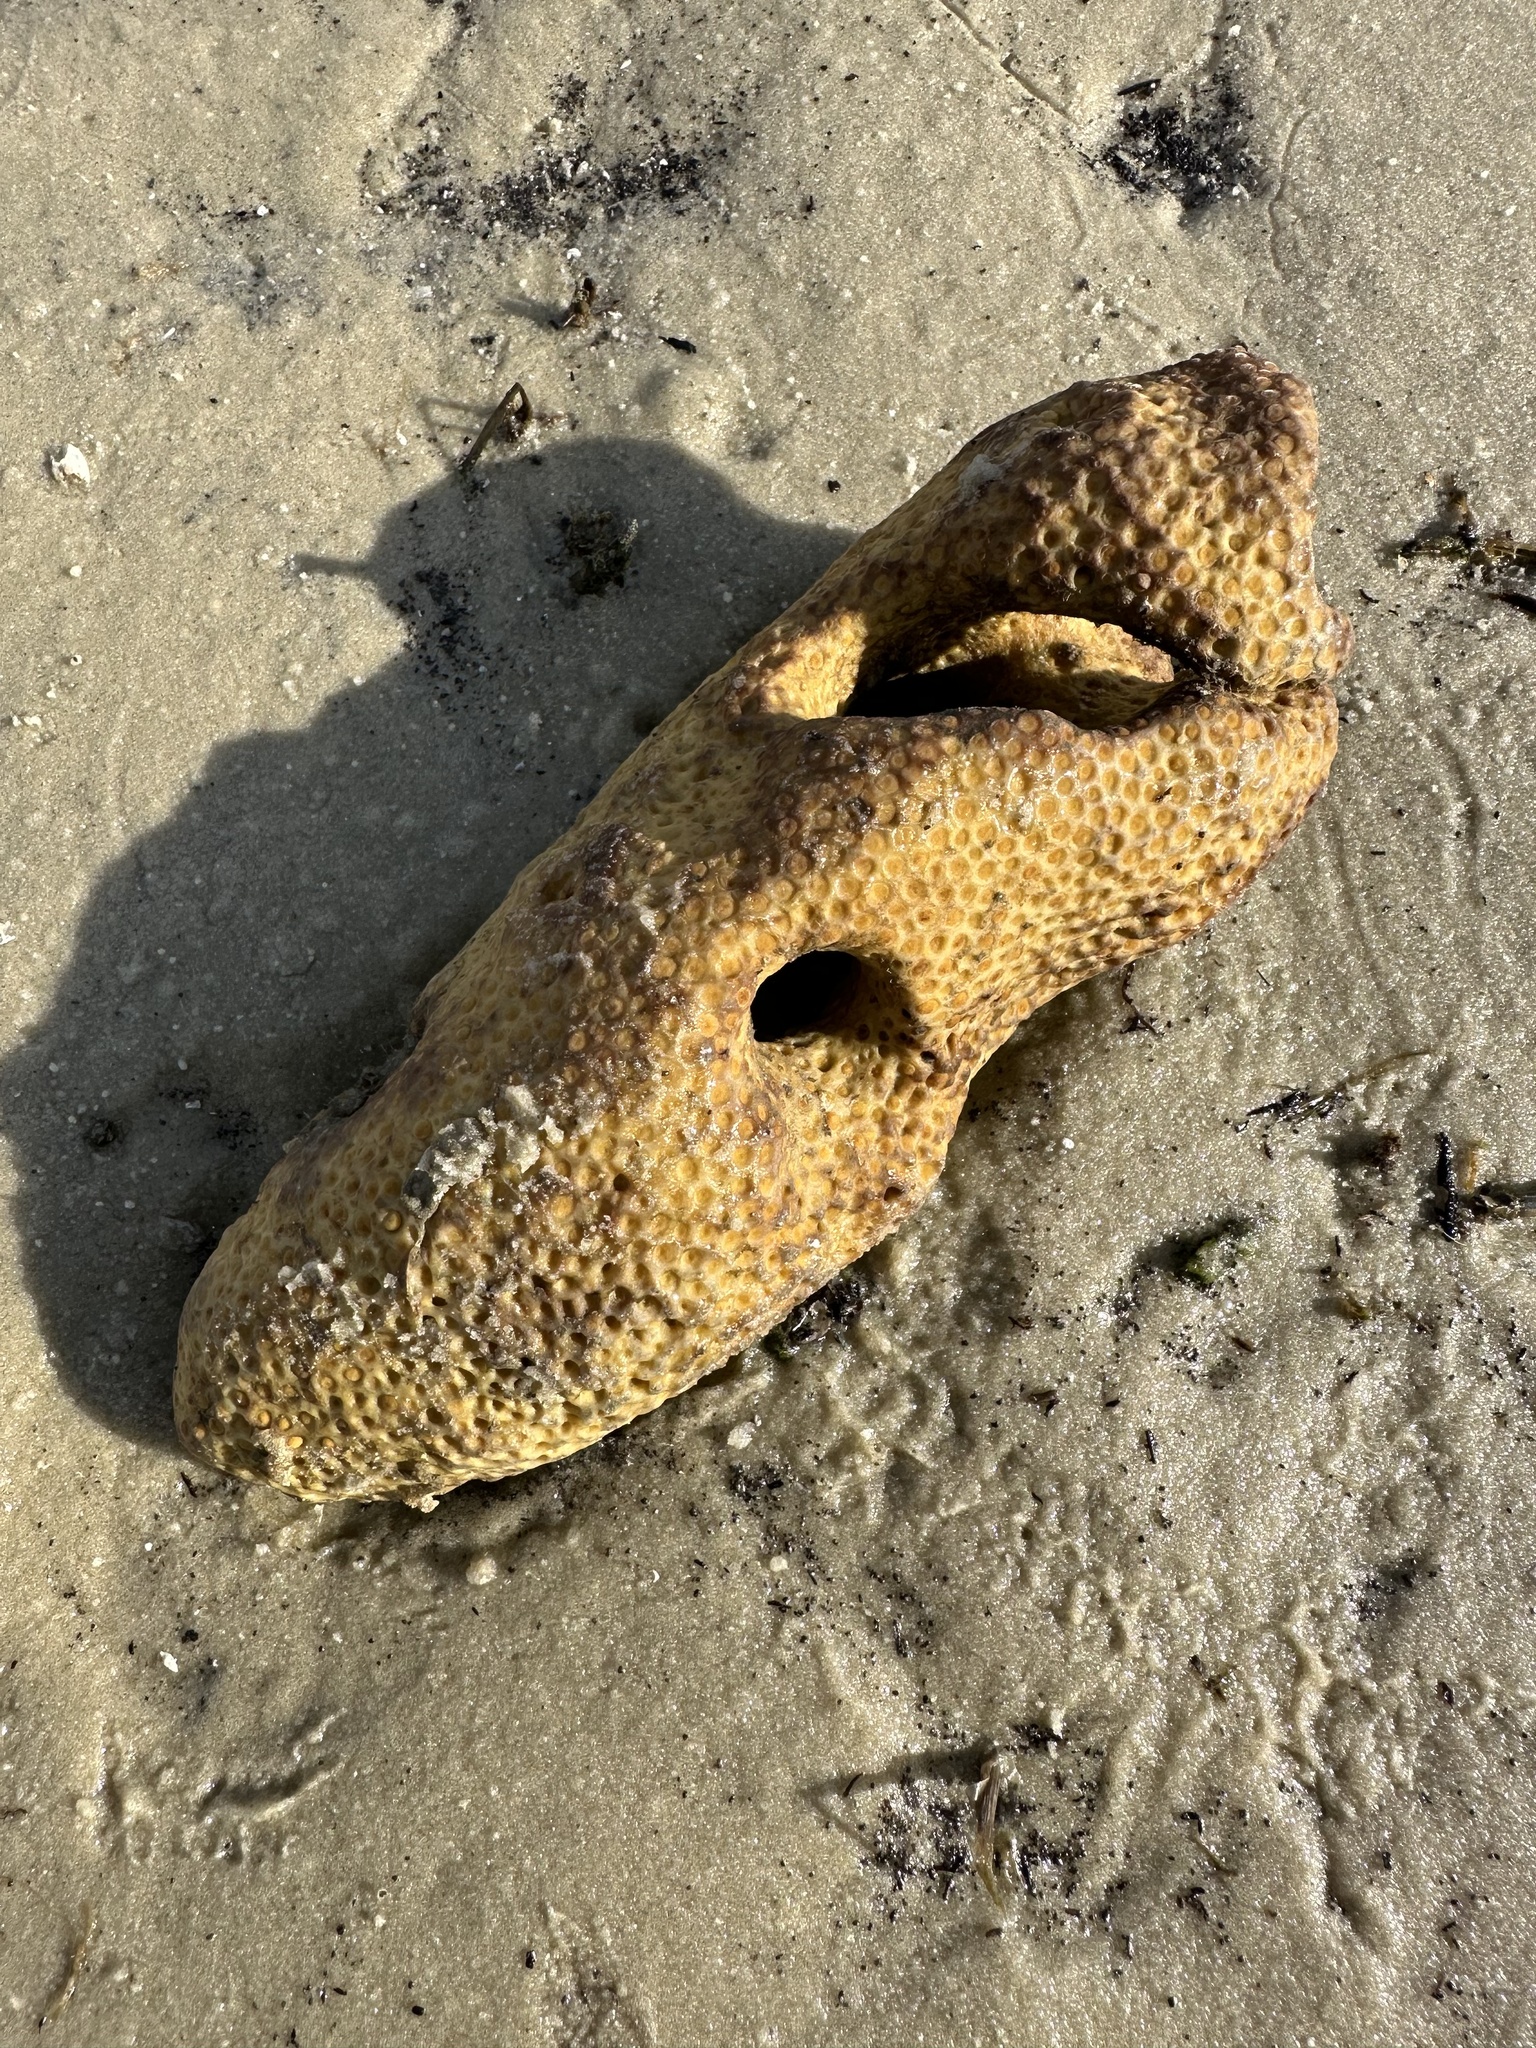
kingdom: Animalia
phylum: Porifera
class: Demospongiae
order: Clionaida
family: Clionaidae
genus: Cliona
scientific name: Cliona celata
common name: Boring sponge
